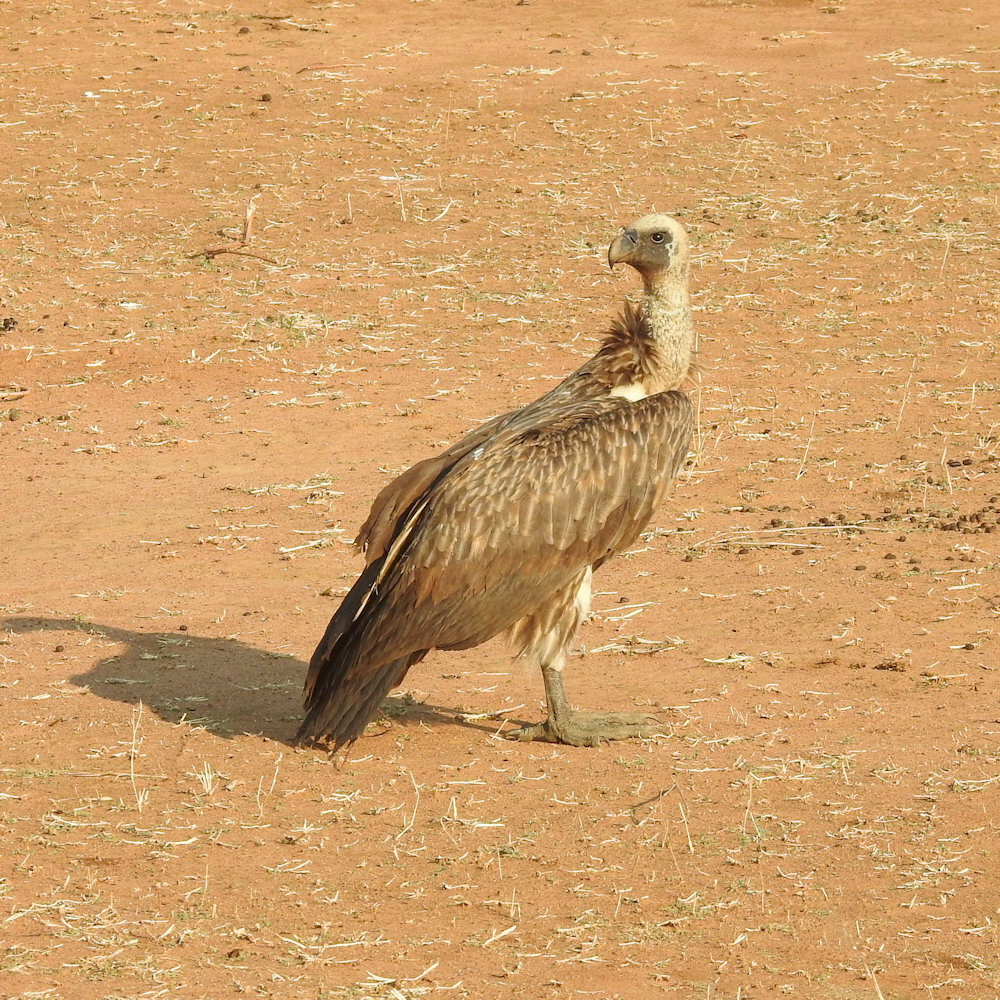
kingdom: Animalia
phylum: Chordata
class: Aves
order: Accipitriformes
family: Accipitridae
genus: Gyps
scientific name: Gyps africanus
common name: White-backed vulture
